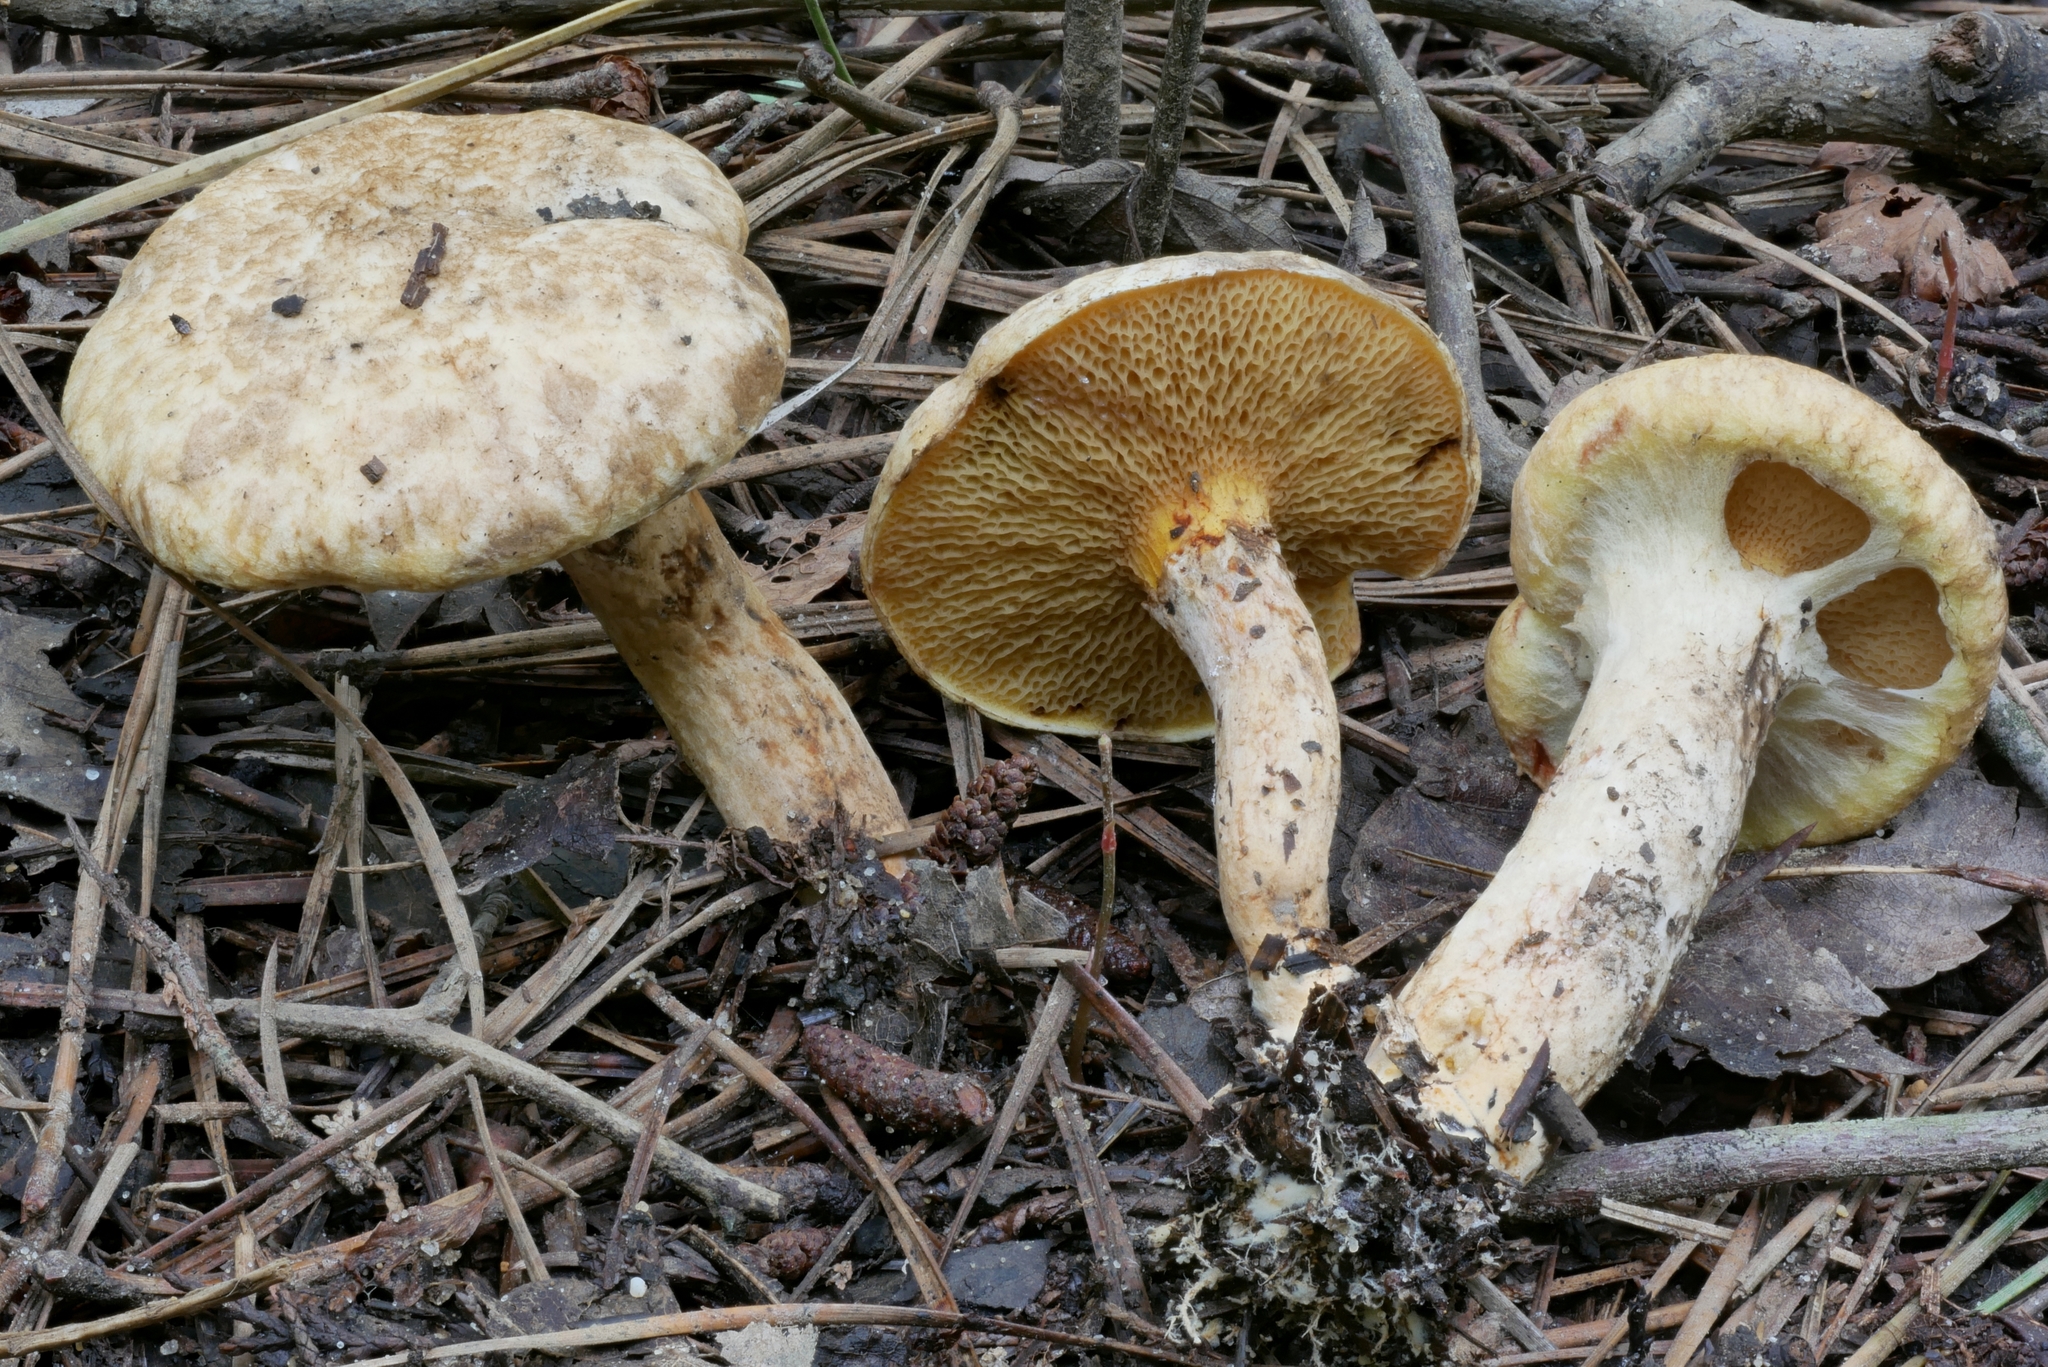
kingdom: Fungi
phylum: Basidiomycota
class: Agaricomycetes
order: Boletales
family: Suillaceae
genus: Suillus
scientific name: Suillus decipiens
